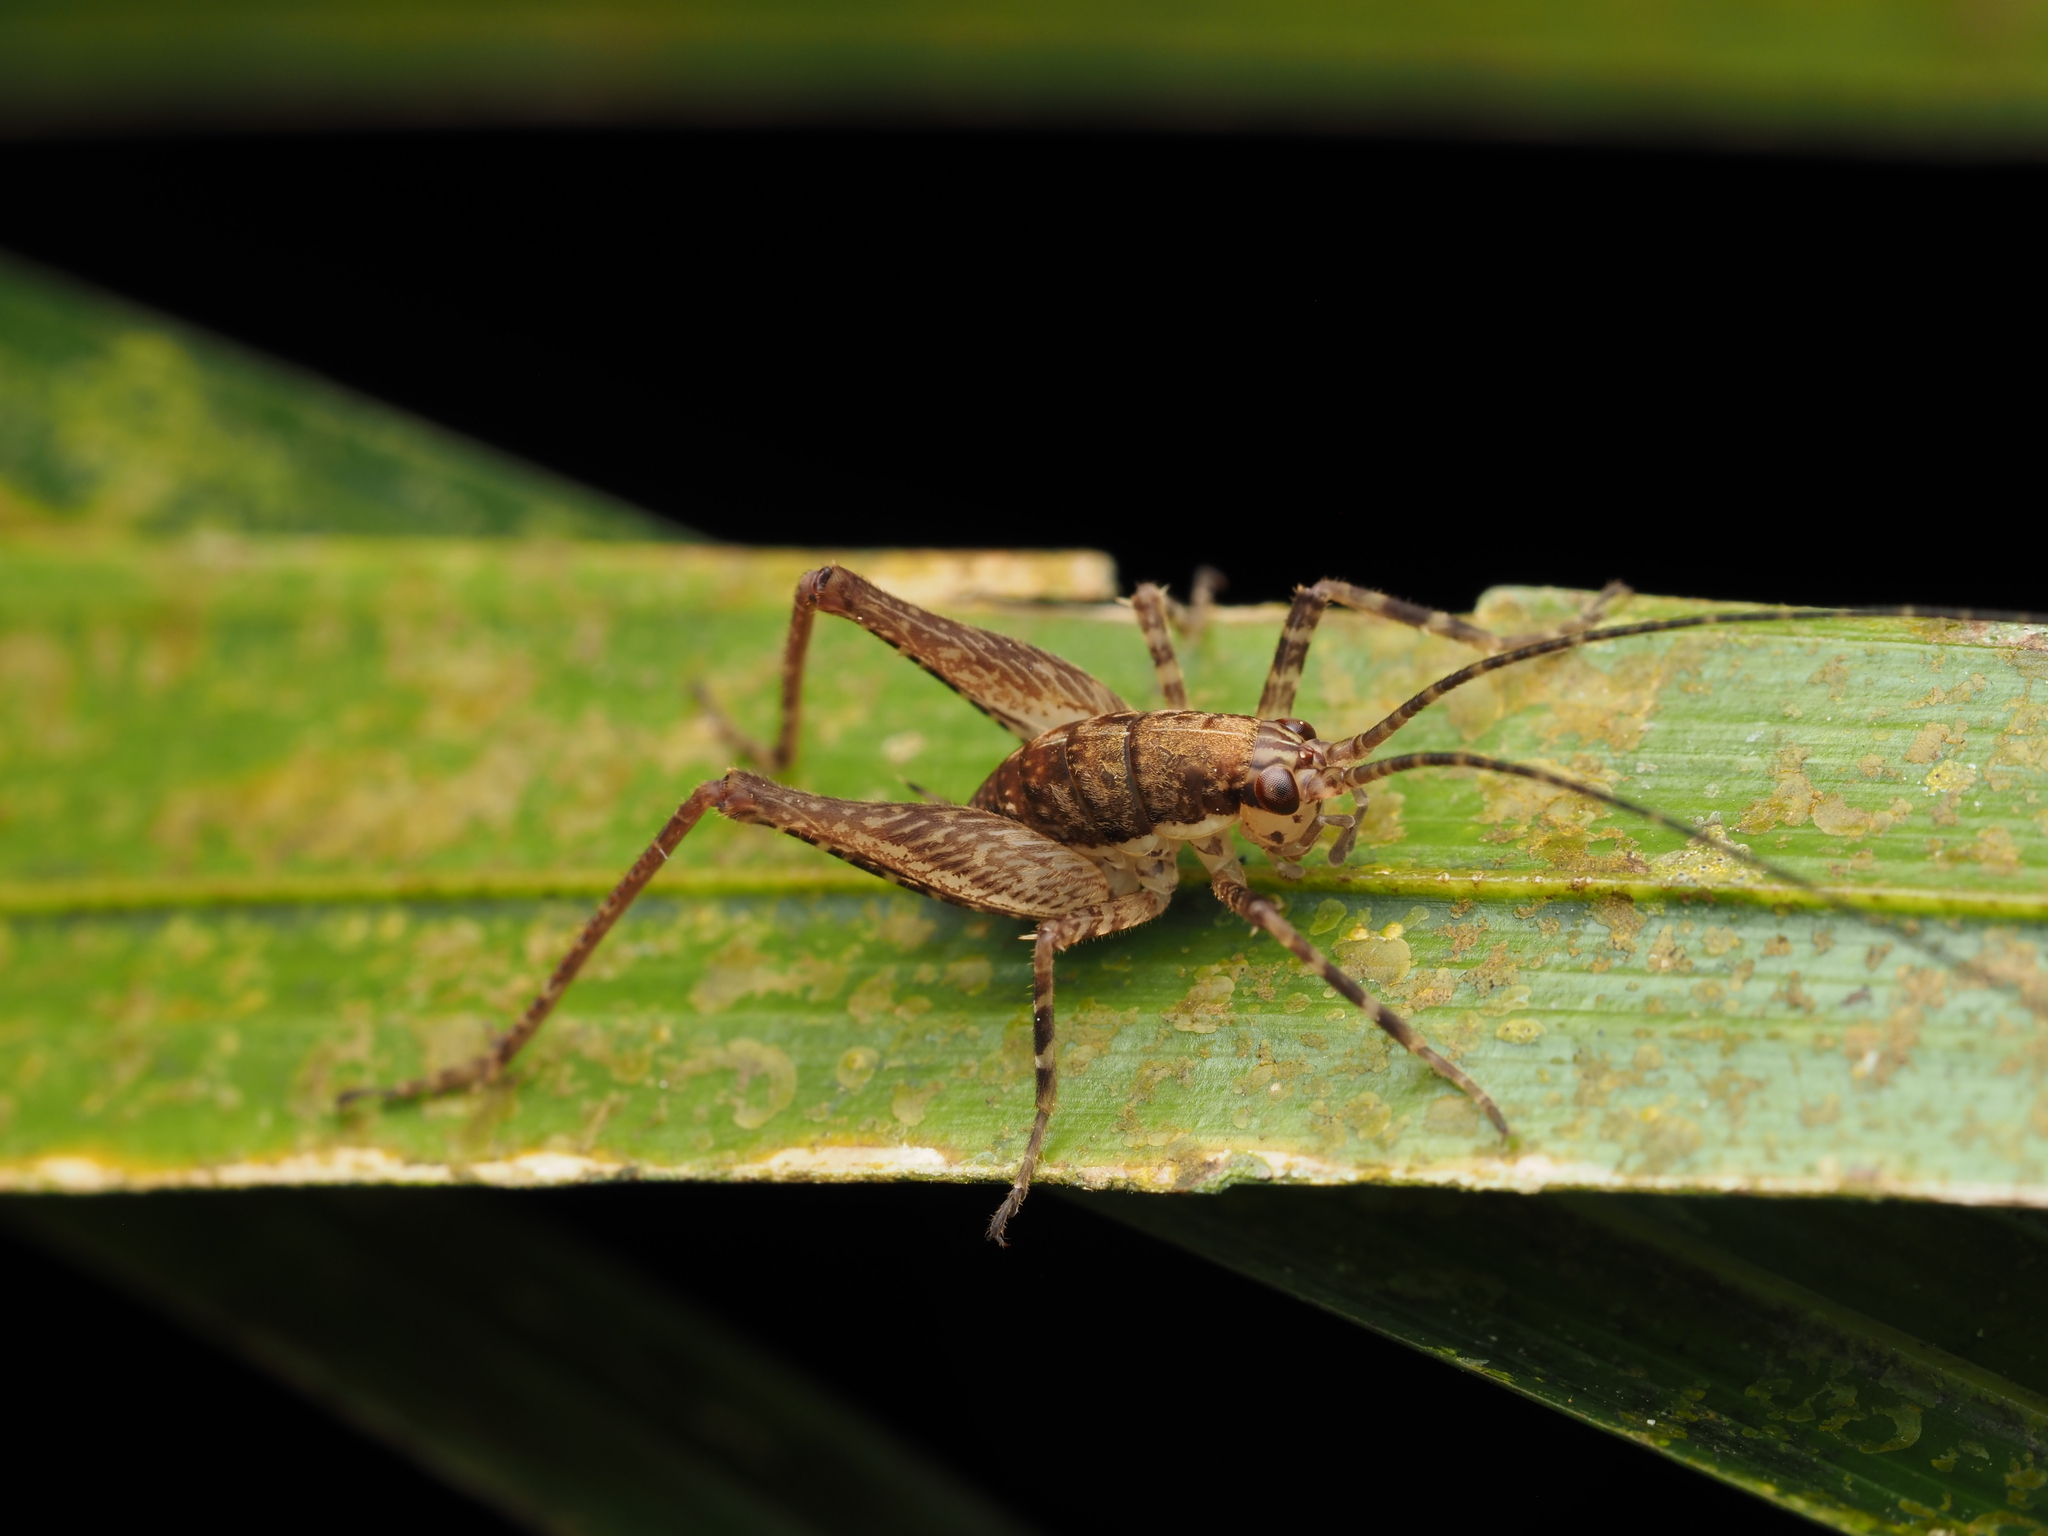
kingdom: Animalia
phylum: Arthropoda
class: Insecta
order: Orthoptera
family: Rhaphidophoridae
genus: Neonetus
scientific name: Neonetus variegatus
